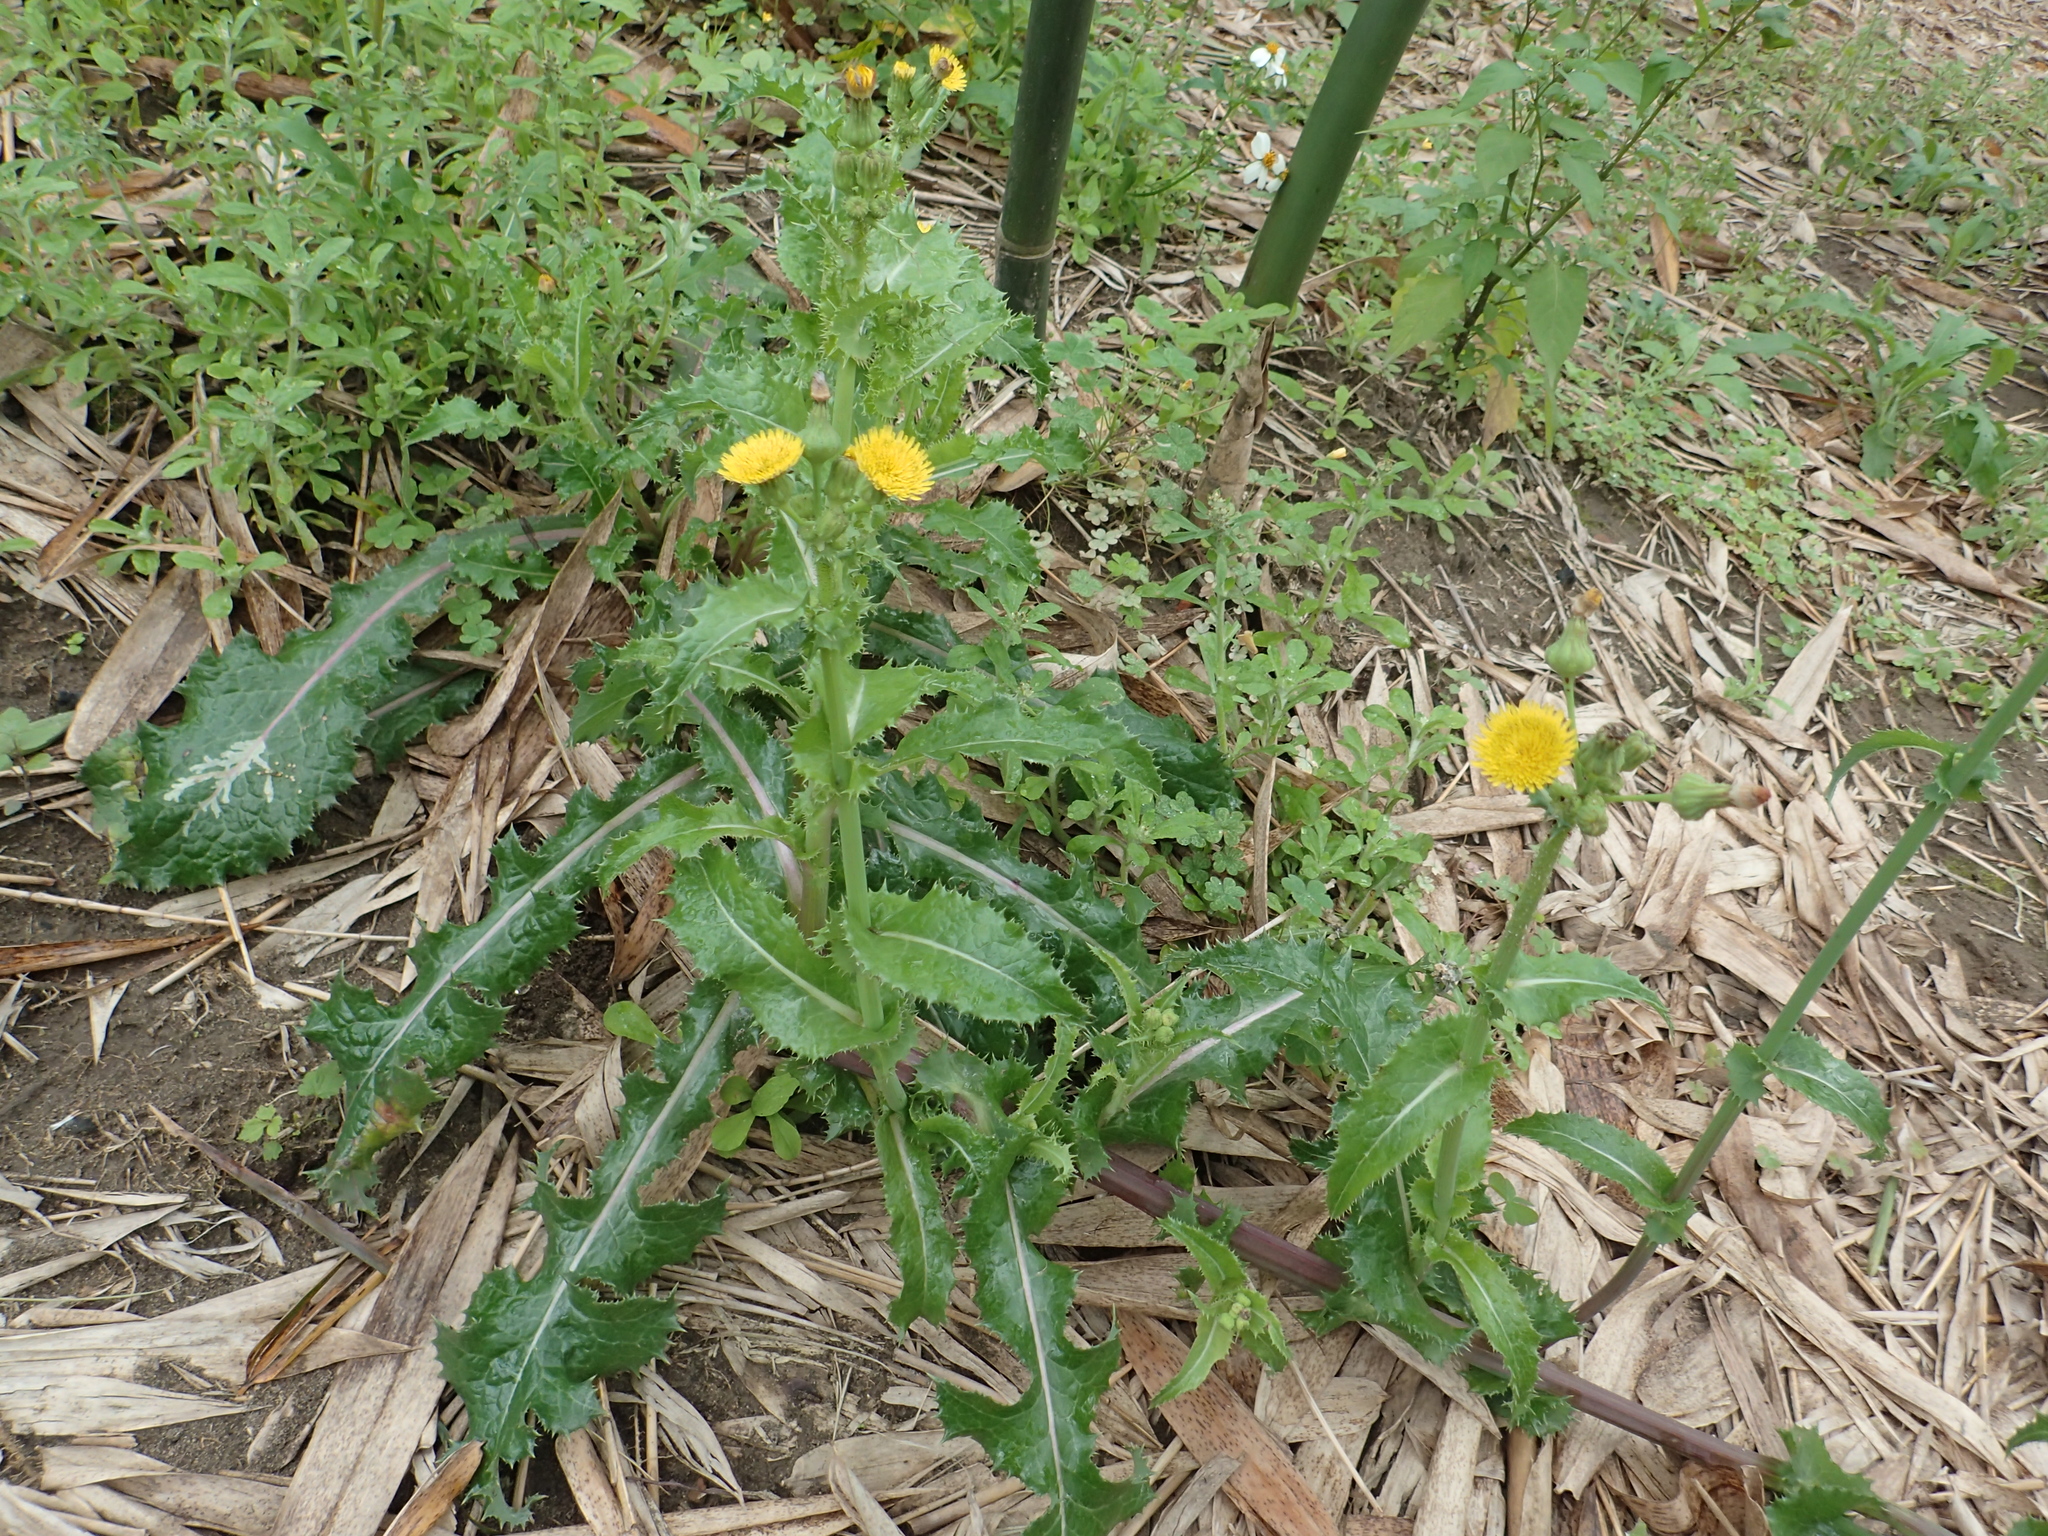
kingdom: Plantae
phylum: Tracheophyta
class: Magnoliopsida
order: Asterales
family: Asteraceae
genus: Sonchus
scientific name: Sonchus asper
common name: Prickly sow-thistle
